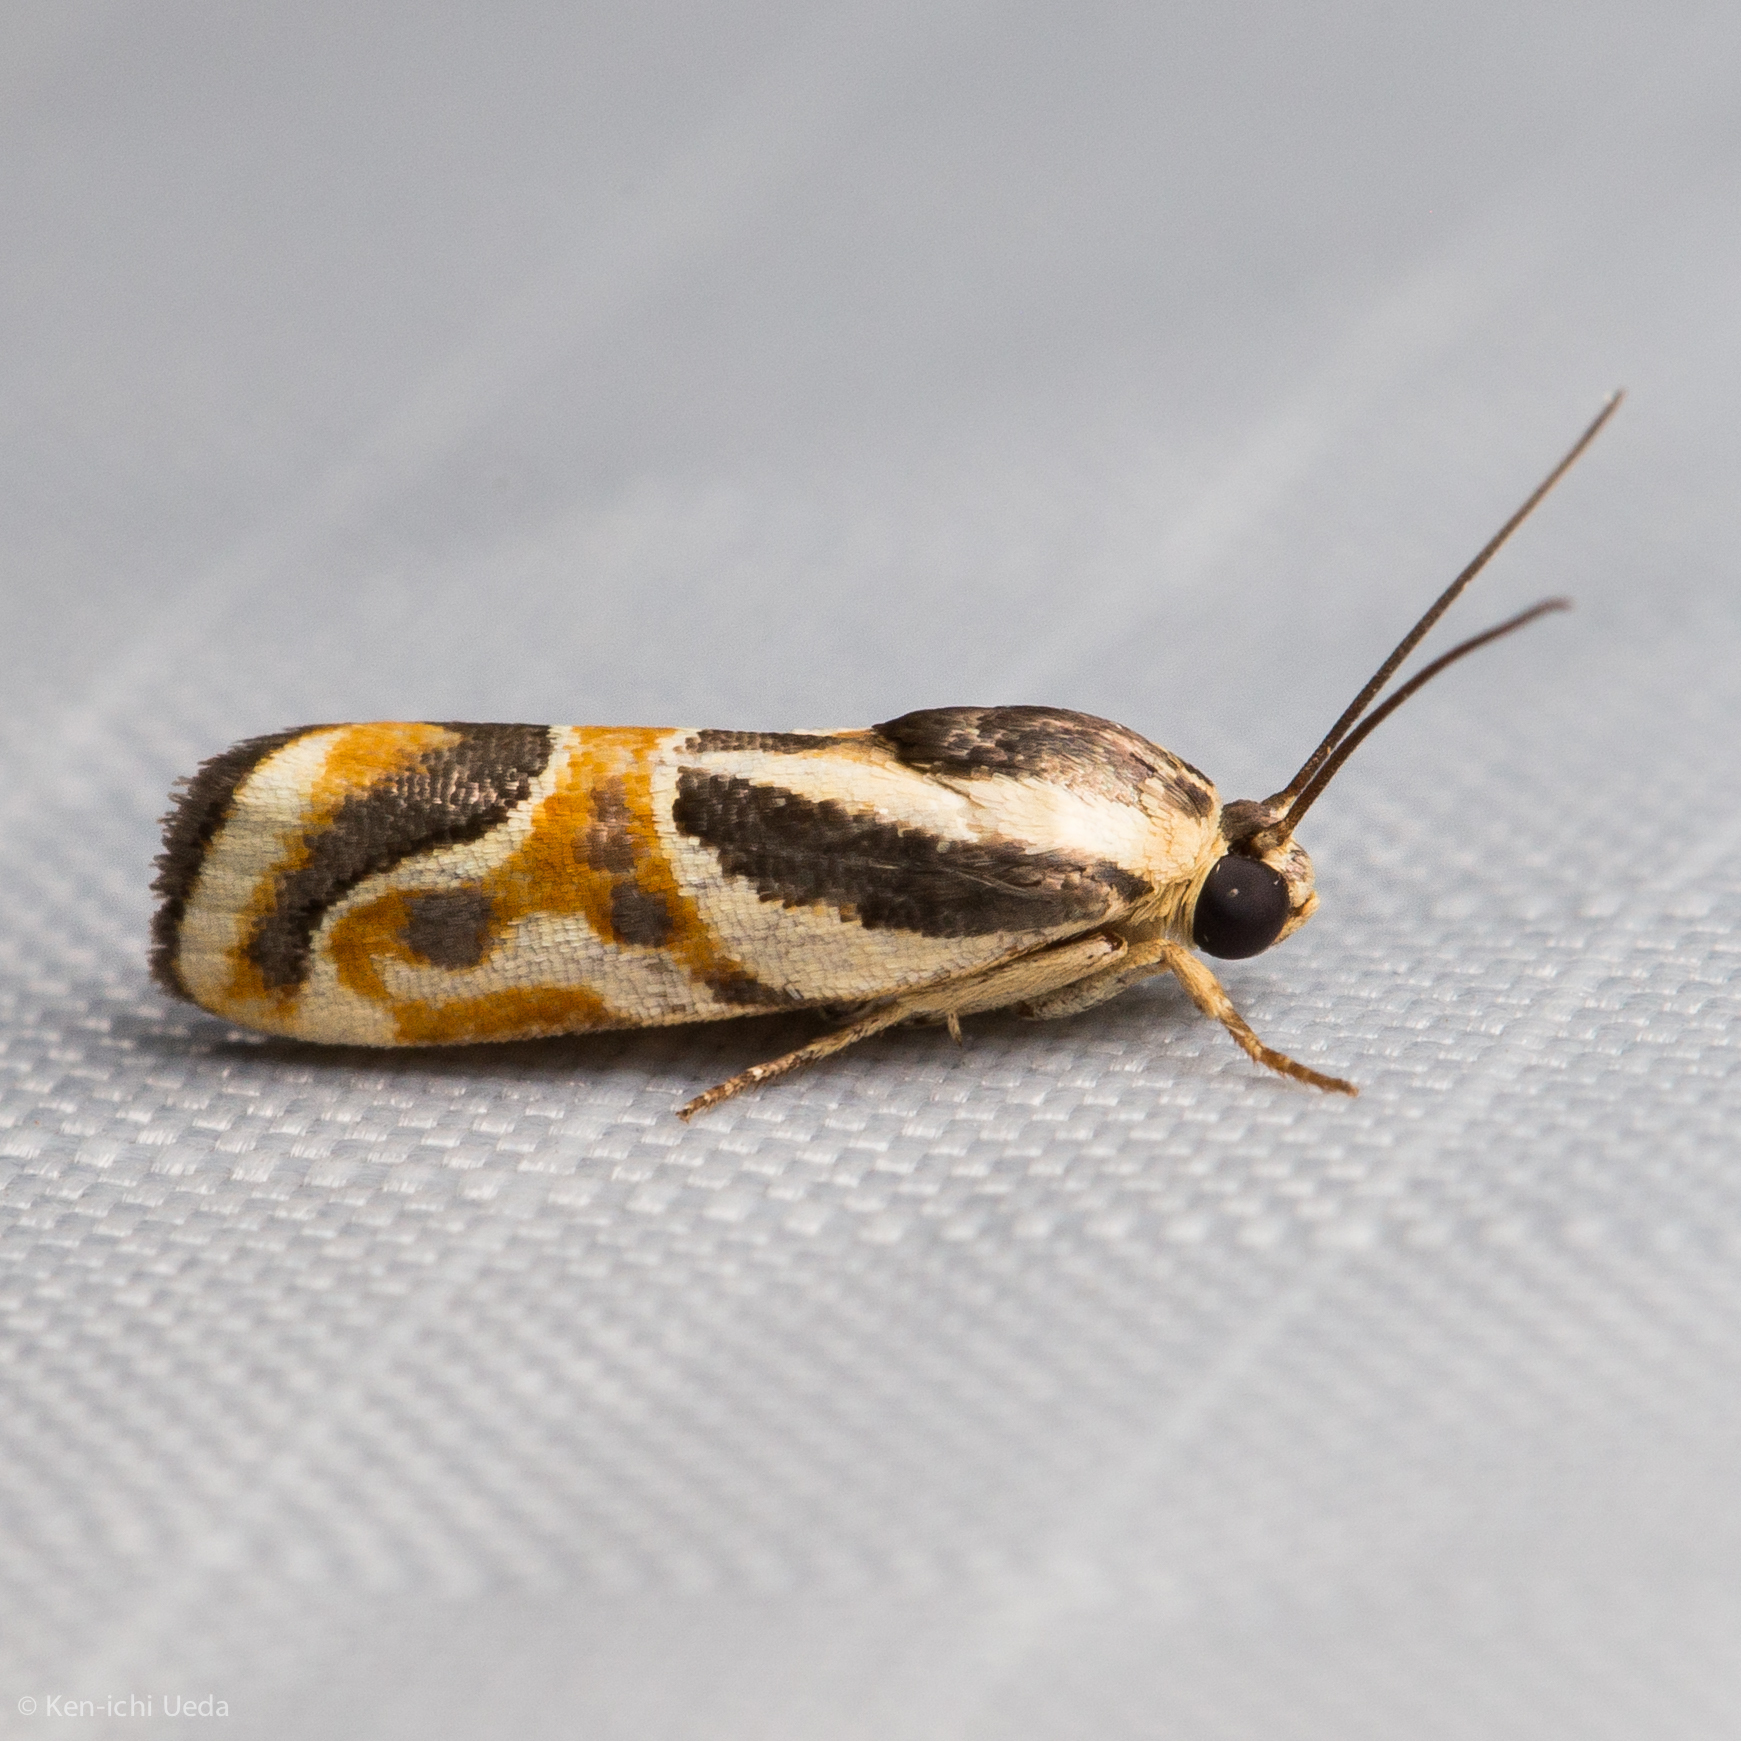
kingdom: Animalia
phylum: Arthropoda
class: Insecta
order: Lepidoptera
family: Noctuidae
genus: Spragueia
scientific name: Spragueia magnifica
